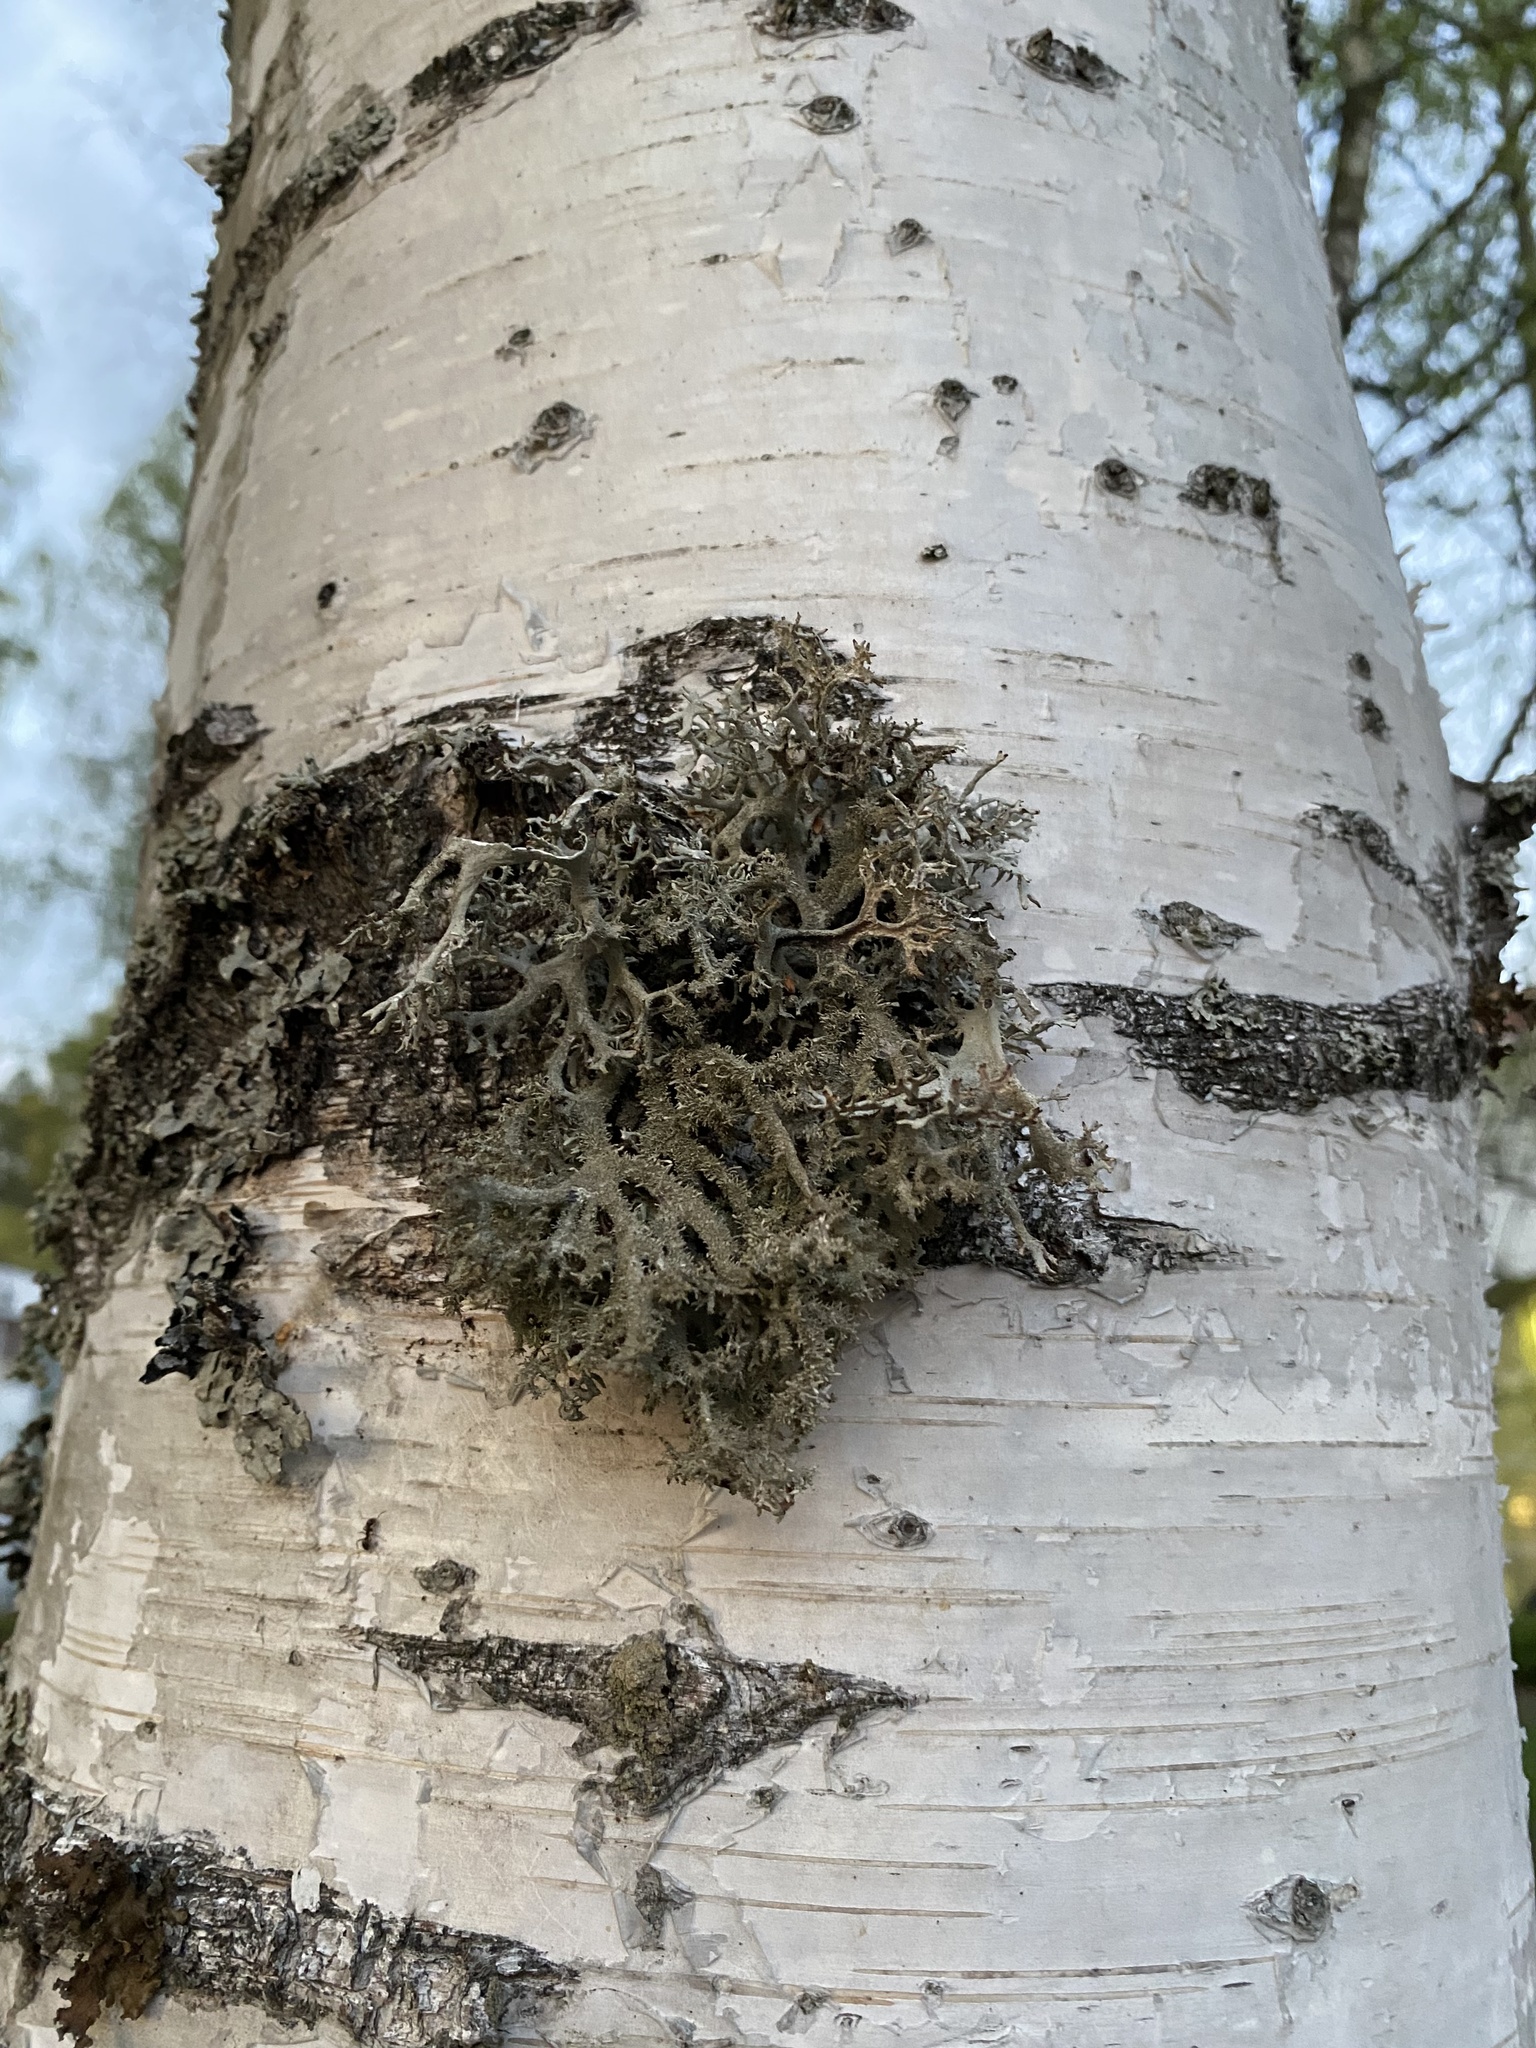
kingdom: Fungi
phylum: Ascomycota
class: Lecanoromycetes
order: Lecanorales
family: Parmeliaceae
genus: Pseudevernia
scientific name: Pseudevernia furfuracea
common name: Tree moss
